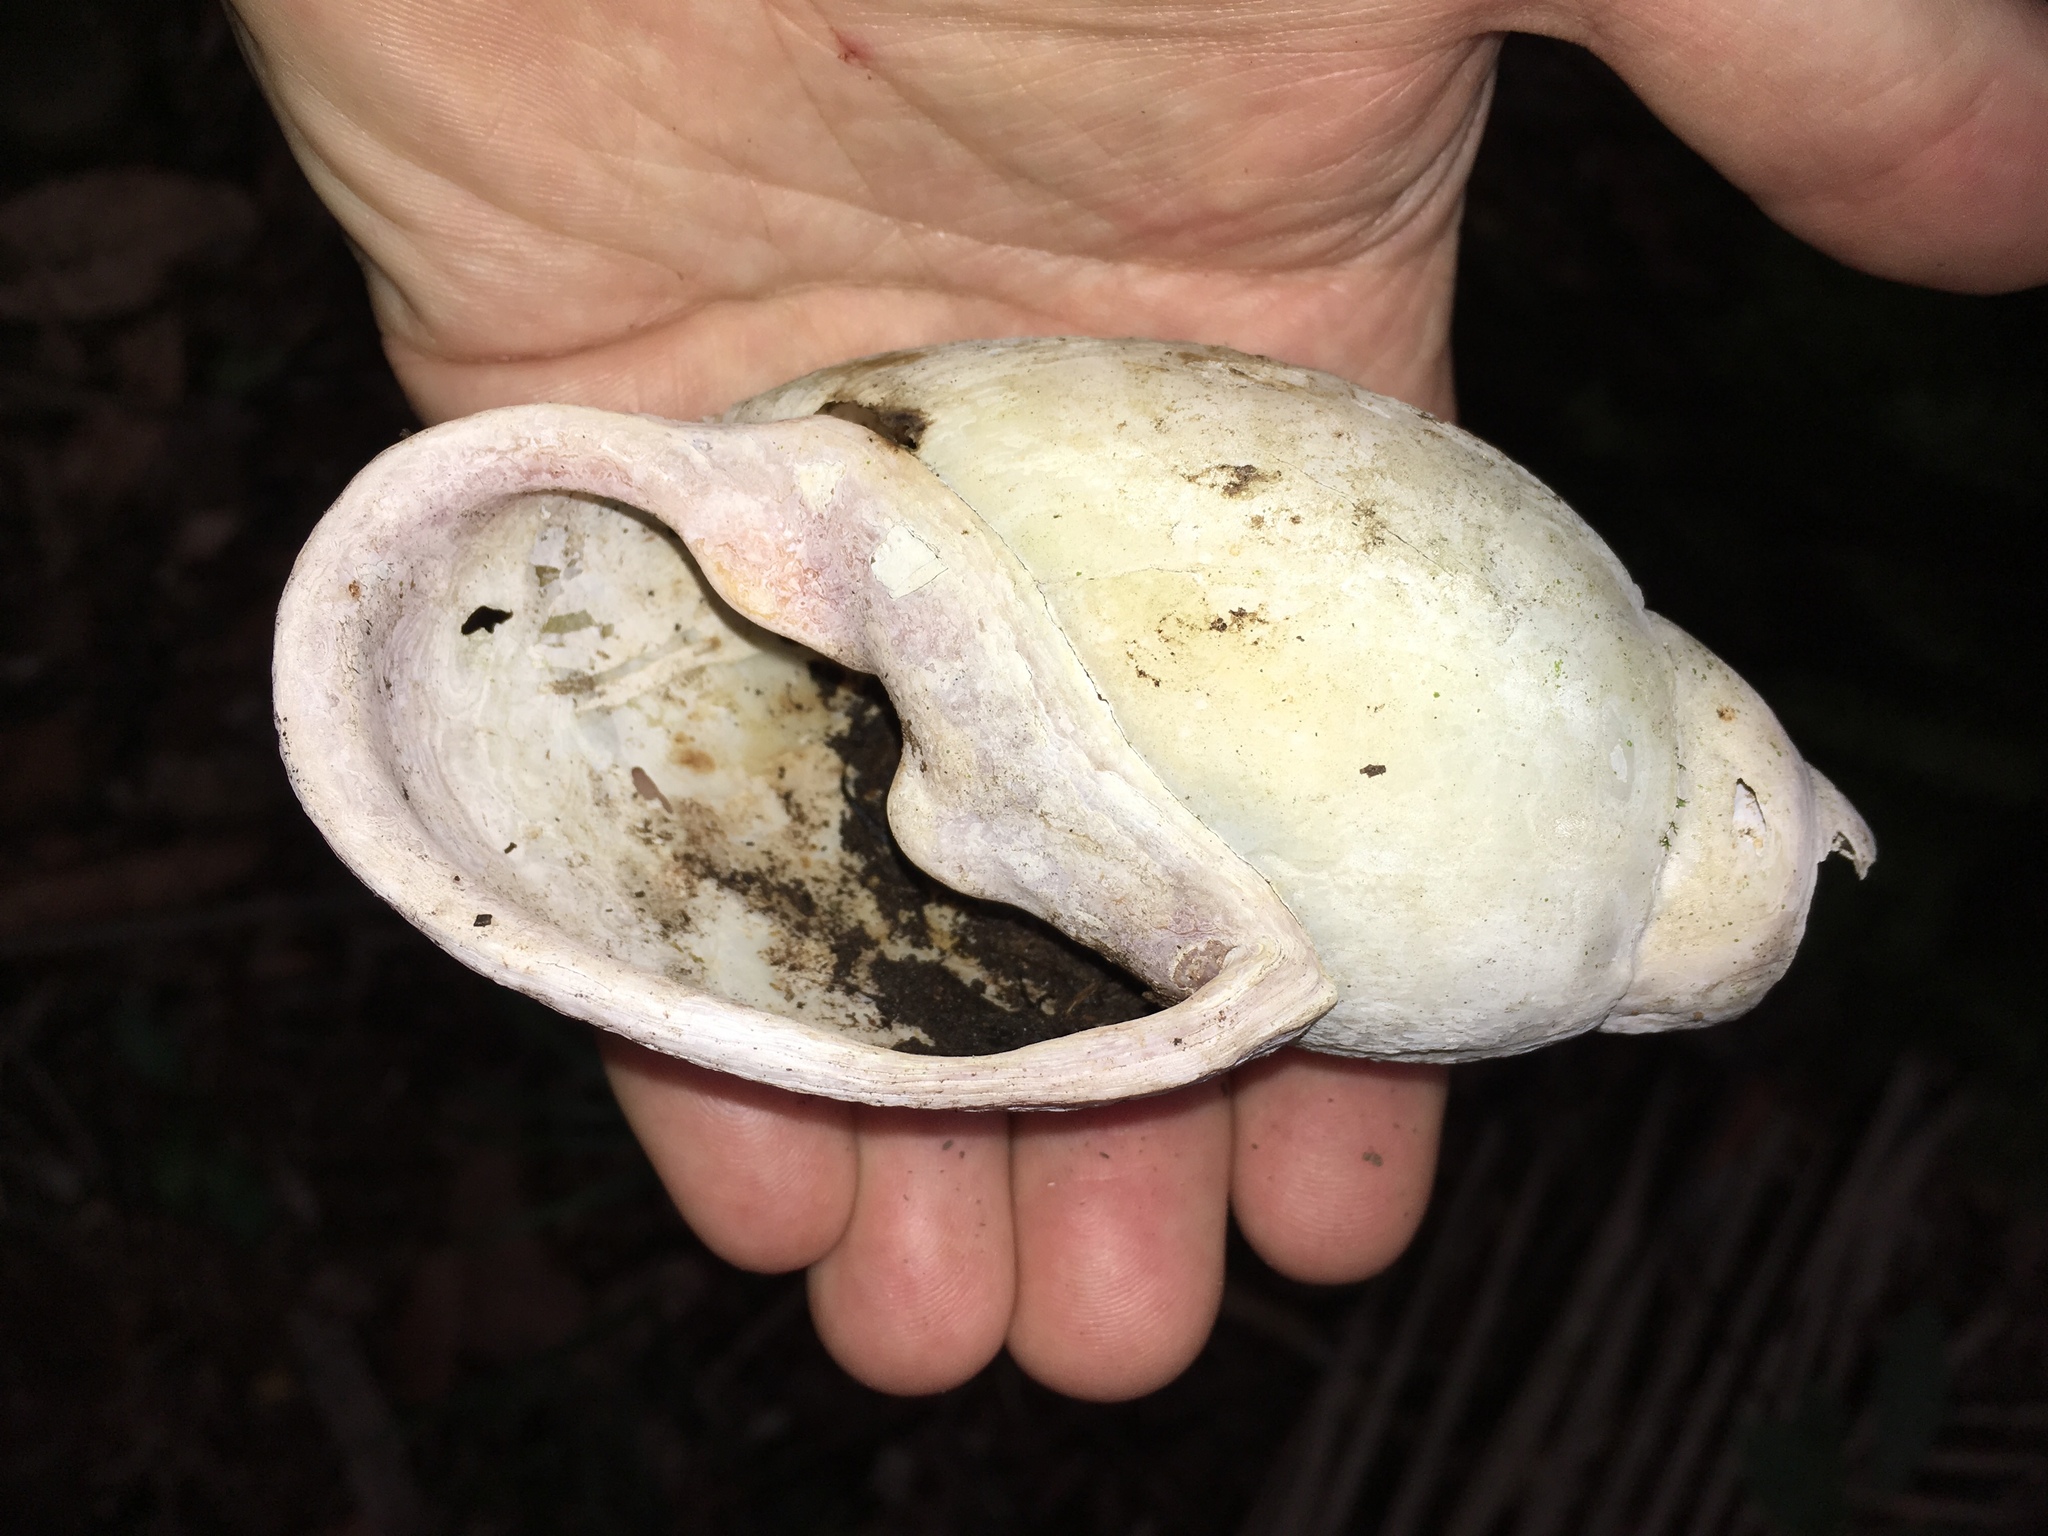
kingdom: Animalia
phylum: Mollusca
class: Gastropoda
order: Stylommatophora
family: Bothriembryontidae
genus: Placostylus
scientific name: Placostylus fibratus
